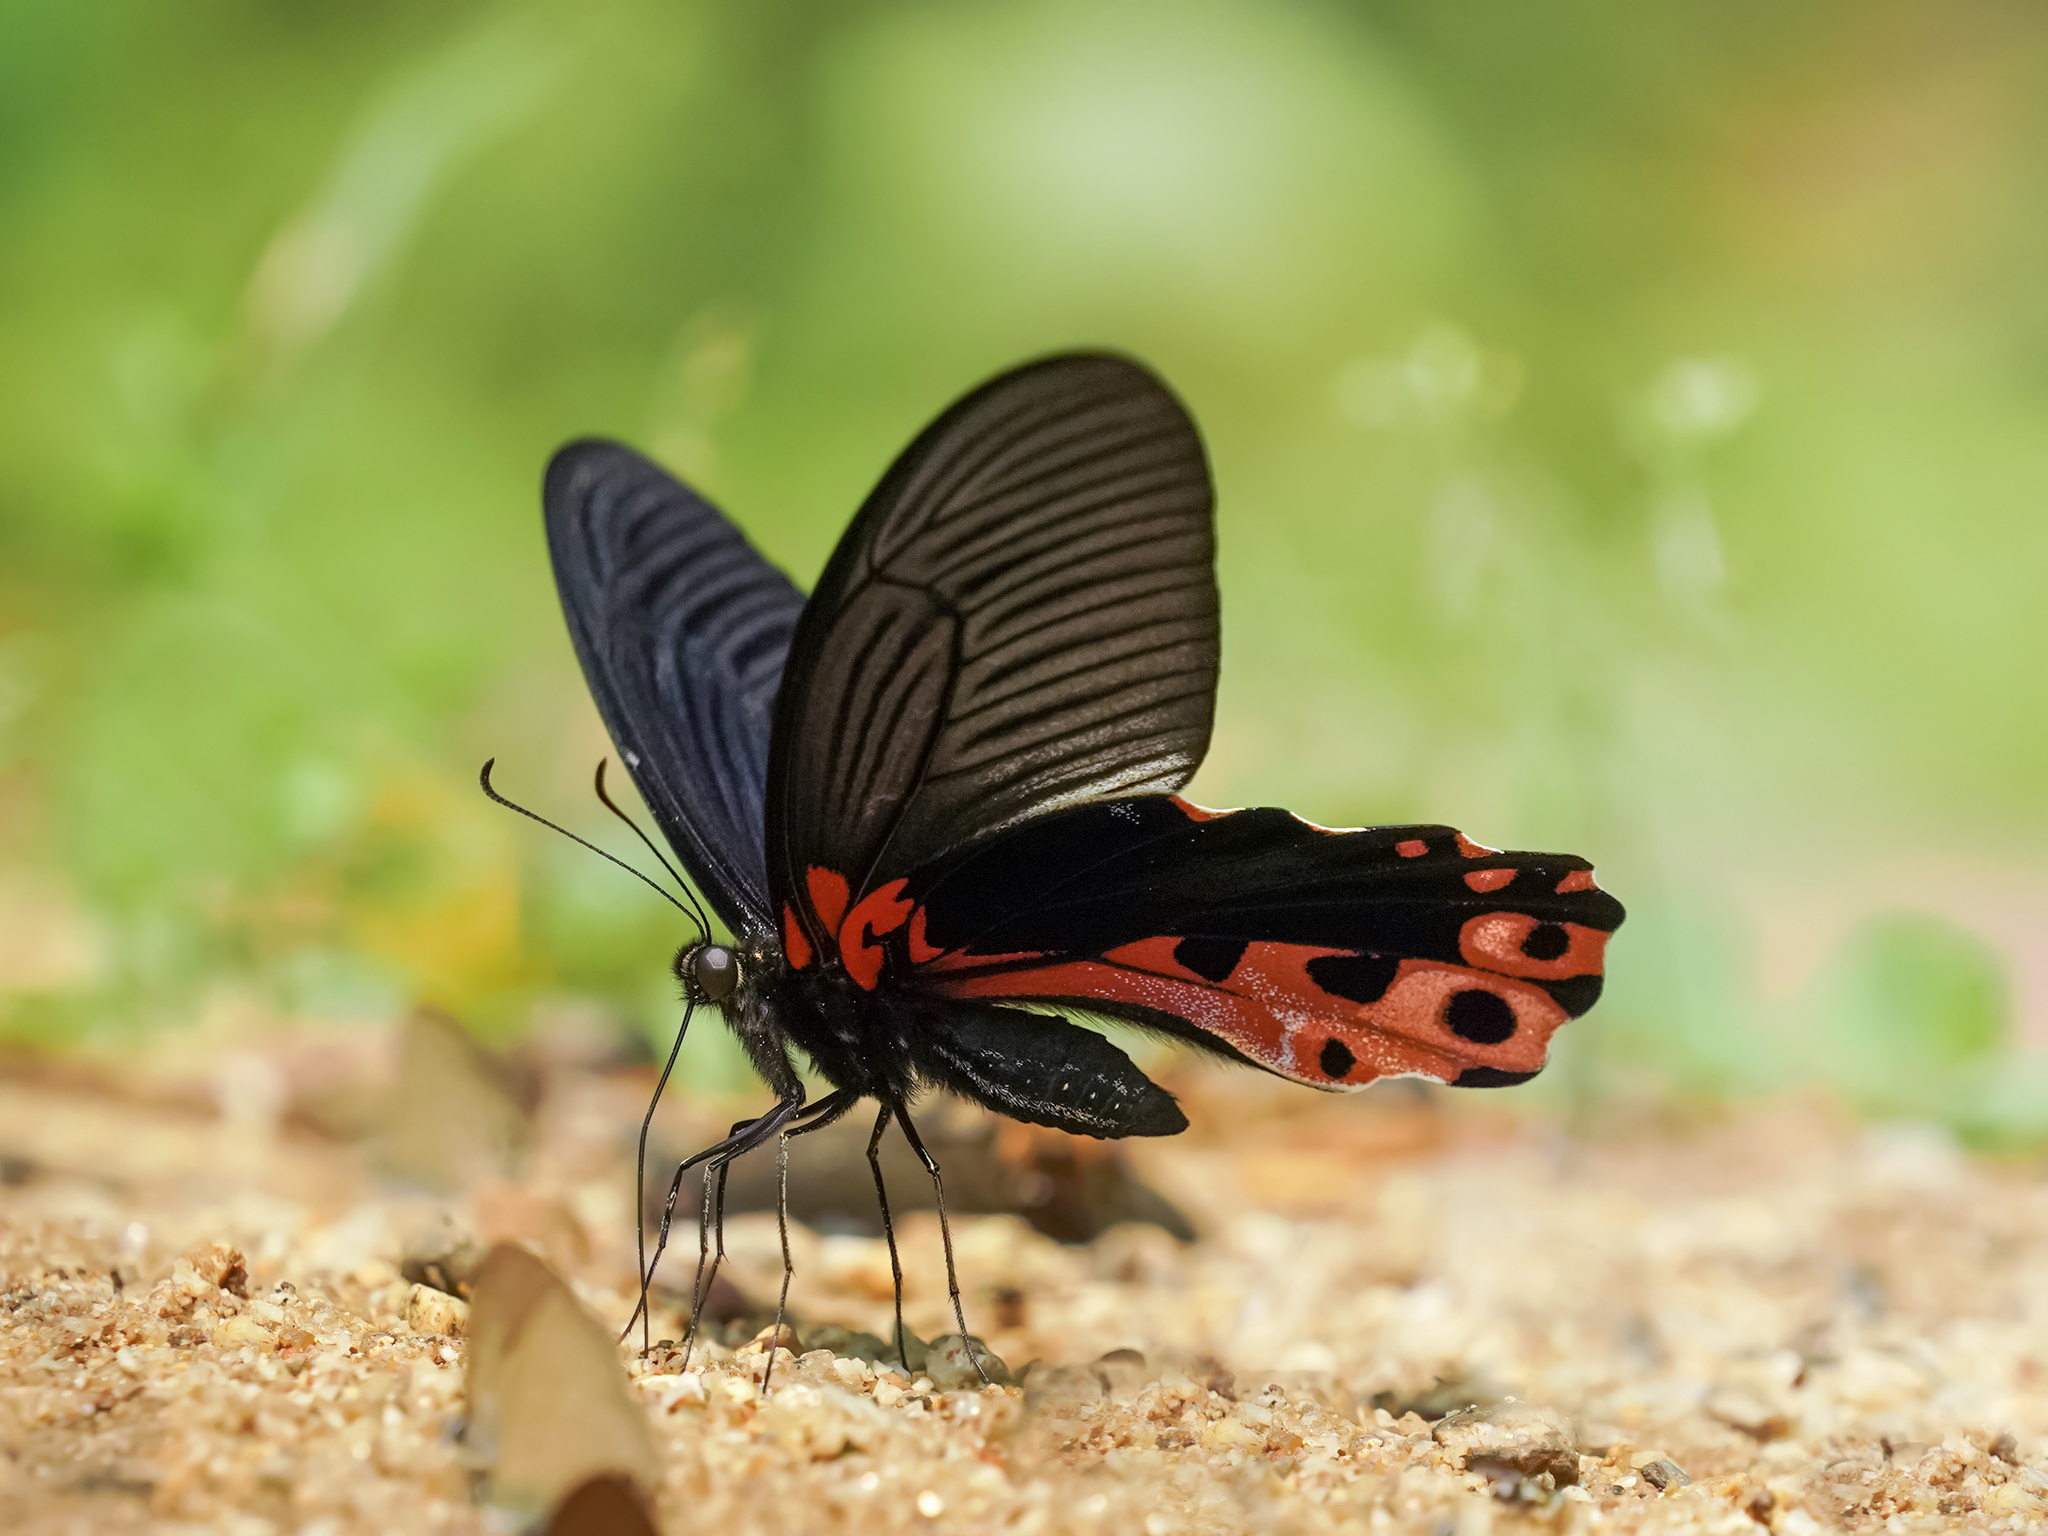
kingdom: Animalia
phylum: Arthropoda
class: Insecta
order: Lepidoptera
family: Papilionidae
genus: Papilio
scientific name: Papilio alcmenor
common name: Redbreast
